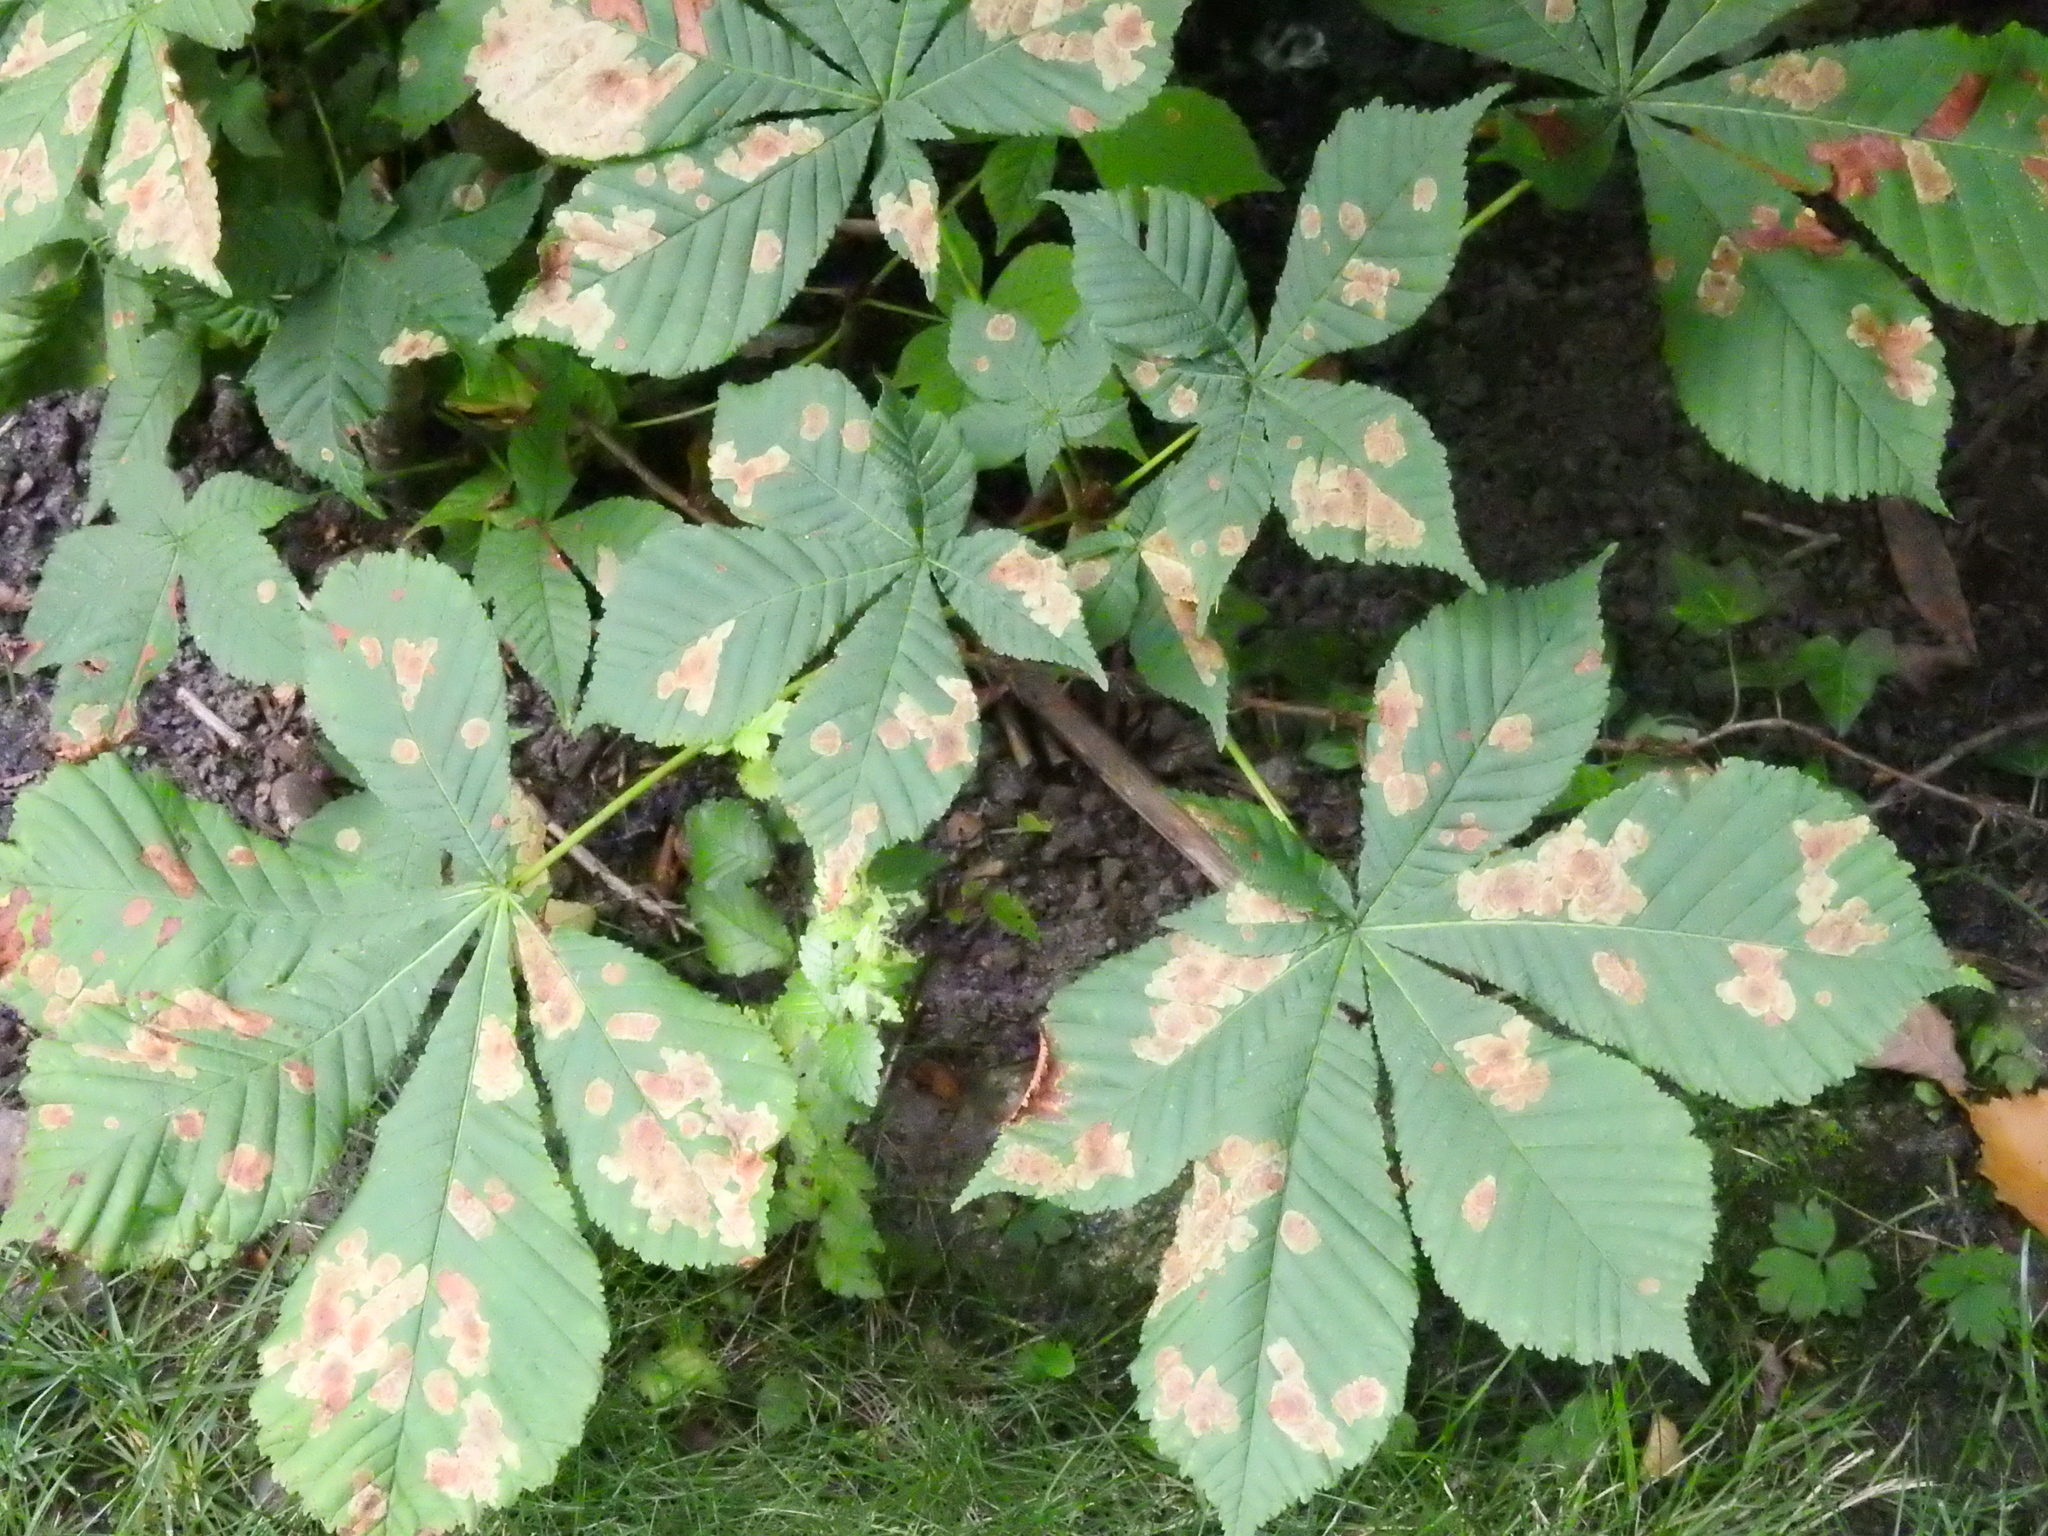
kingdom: Animalia
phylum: Arthropoda
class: Insecta
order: Lepidoptera
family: Gracillariidae
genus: Cameraria
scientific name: Cameraria ohridella
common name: Horse-chestnut leaf-miner
